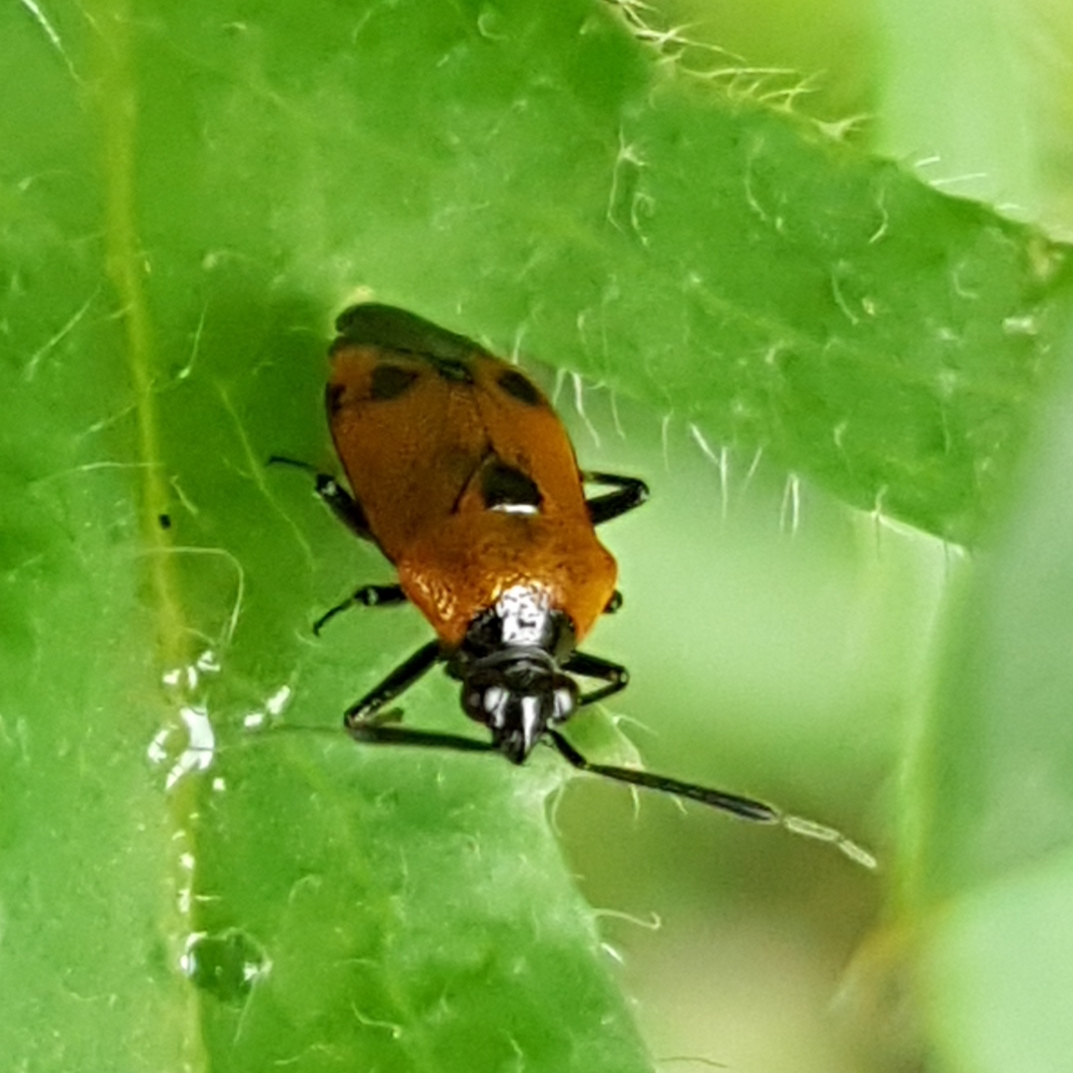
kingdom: Animalia
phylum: Arthropoda
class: Insecta
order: Hemiptera
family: Miridae
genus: Deraeocoris
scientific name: Deraeocoris punctum
